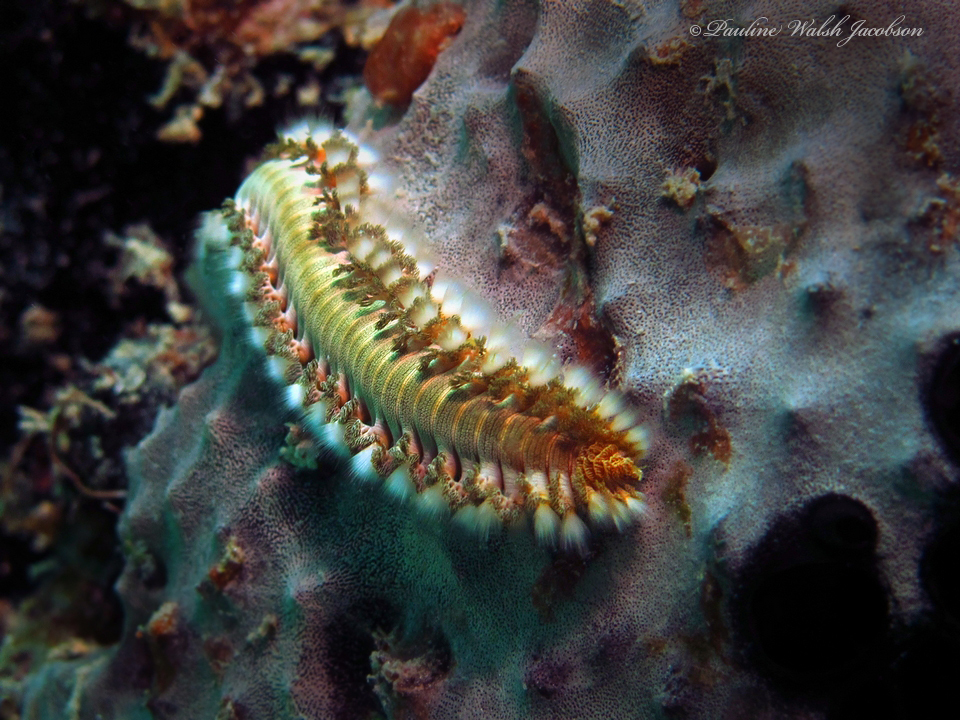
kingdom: Animalia
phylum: Annelida
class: Polychaeta
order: Amphinomida
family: Amphinomidae
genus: Hermodice
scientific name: Hermodice carunculata
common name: Bearded fireworm
